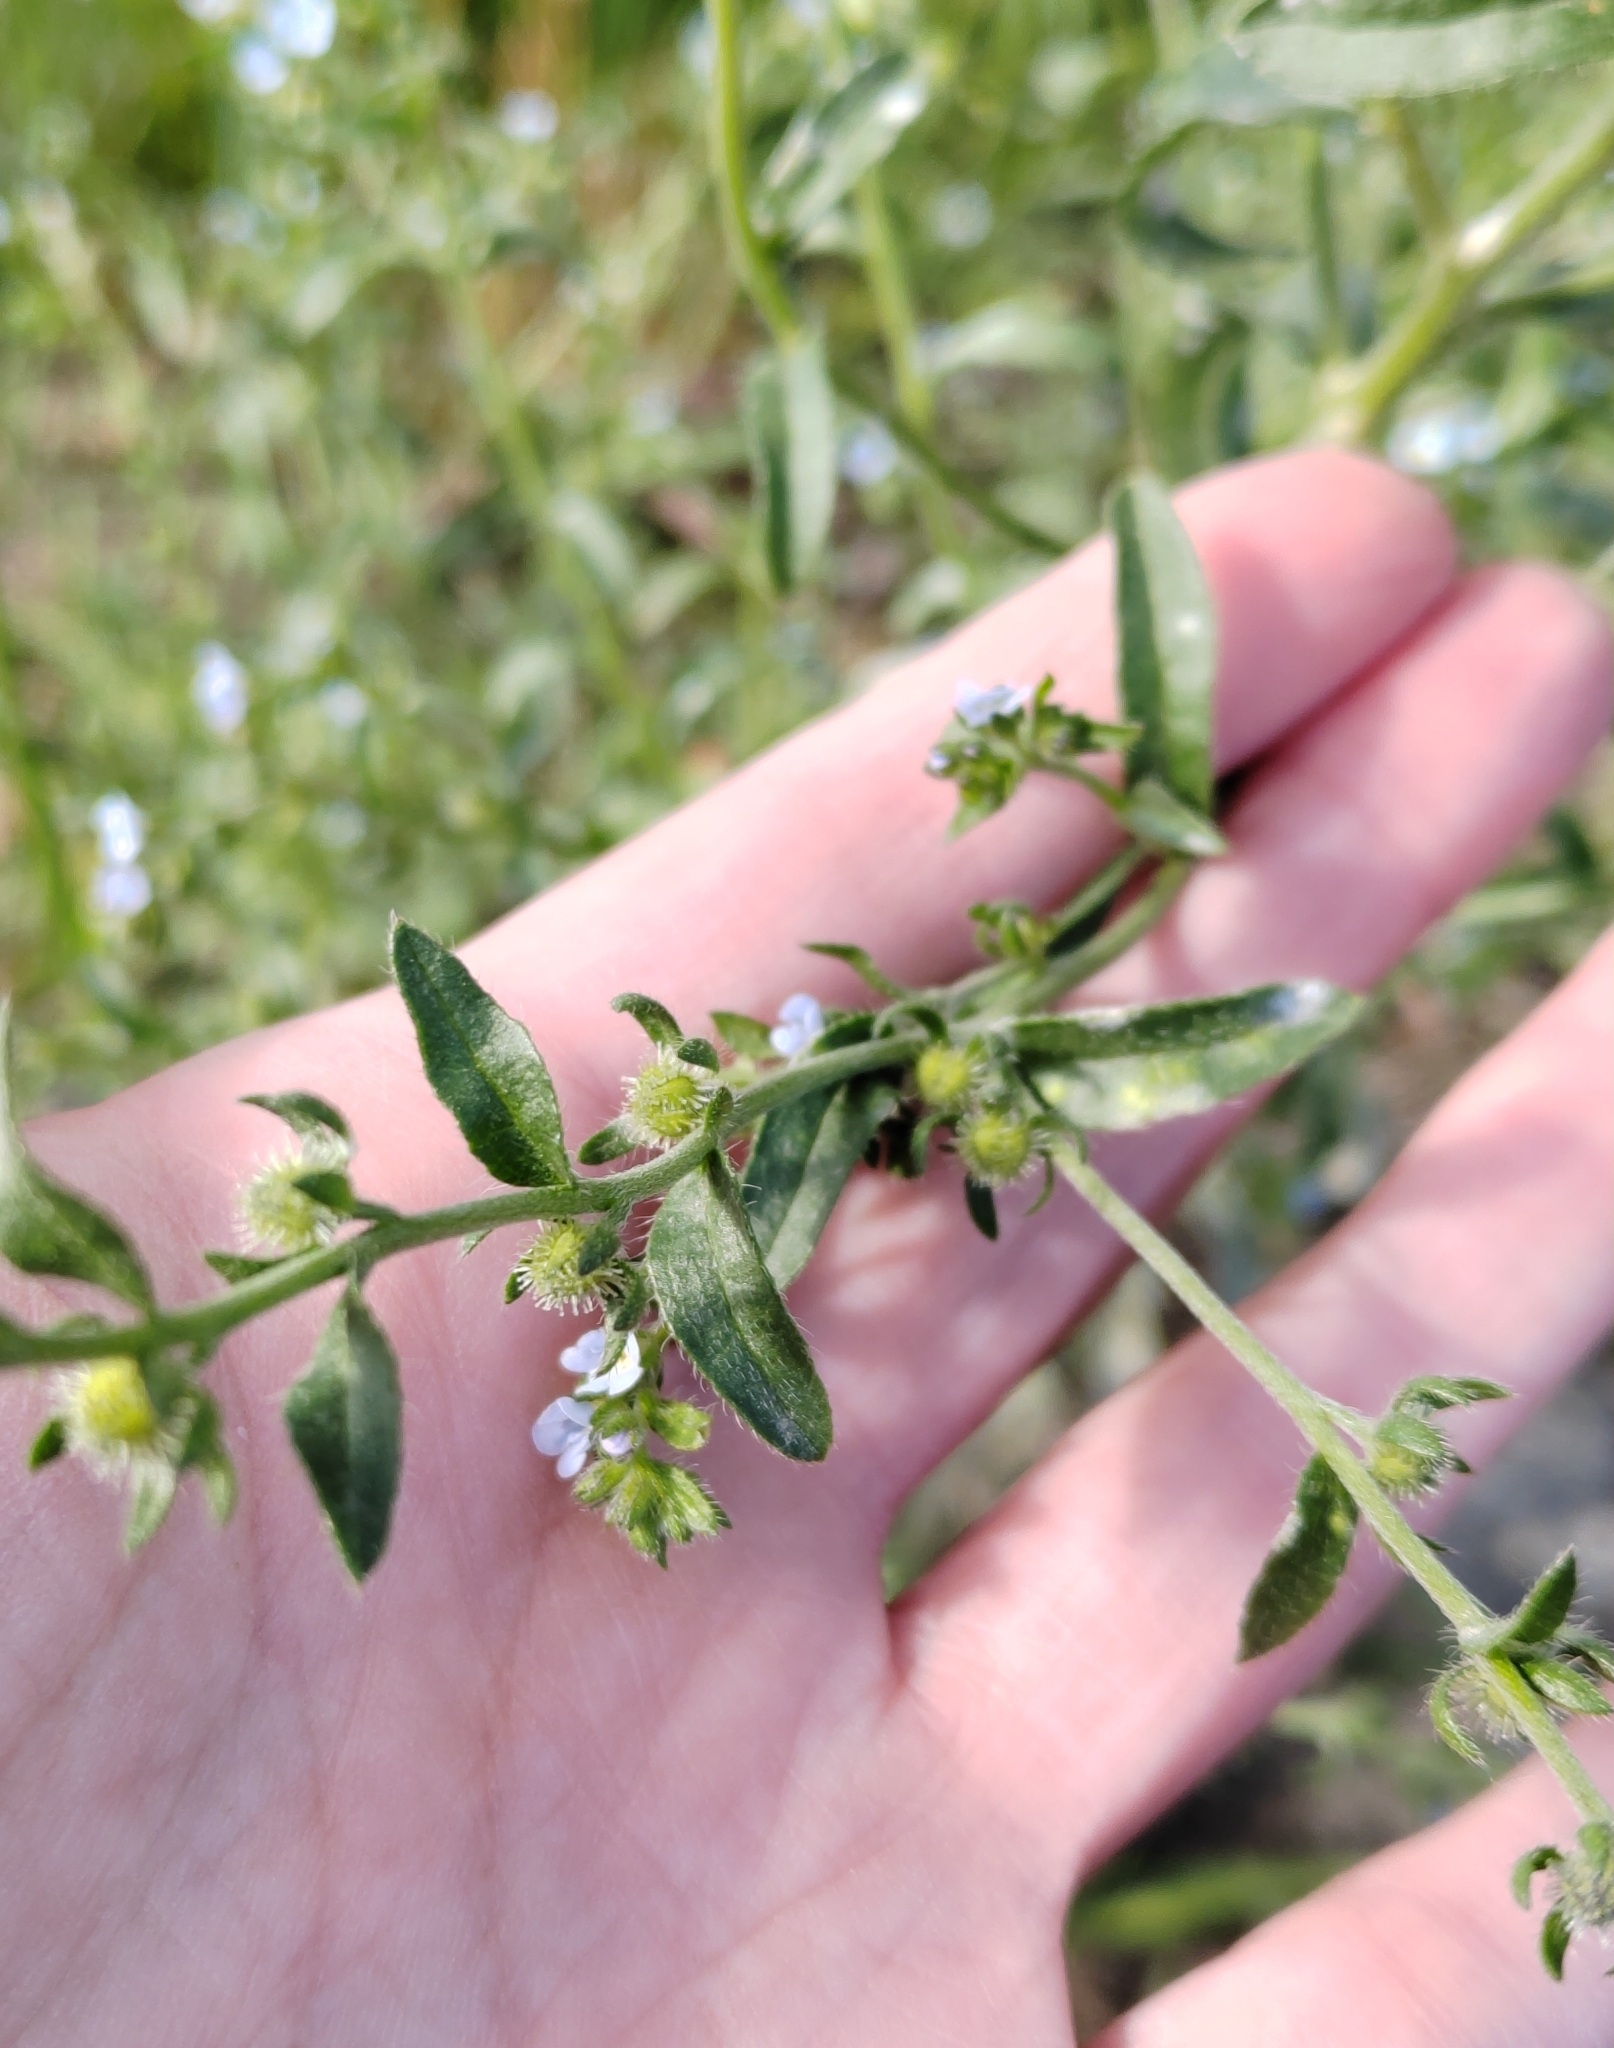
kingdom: Plantae
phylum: Tracheophyta
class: Magnoliopsida
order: Boraginales
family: Boraginaceae
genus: Lappula
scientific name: Lappula squarrosa
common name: European stickseed
